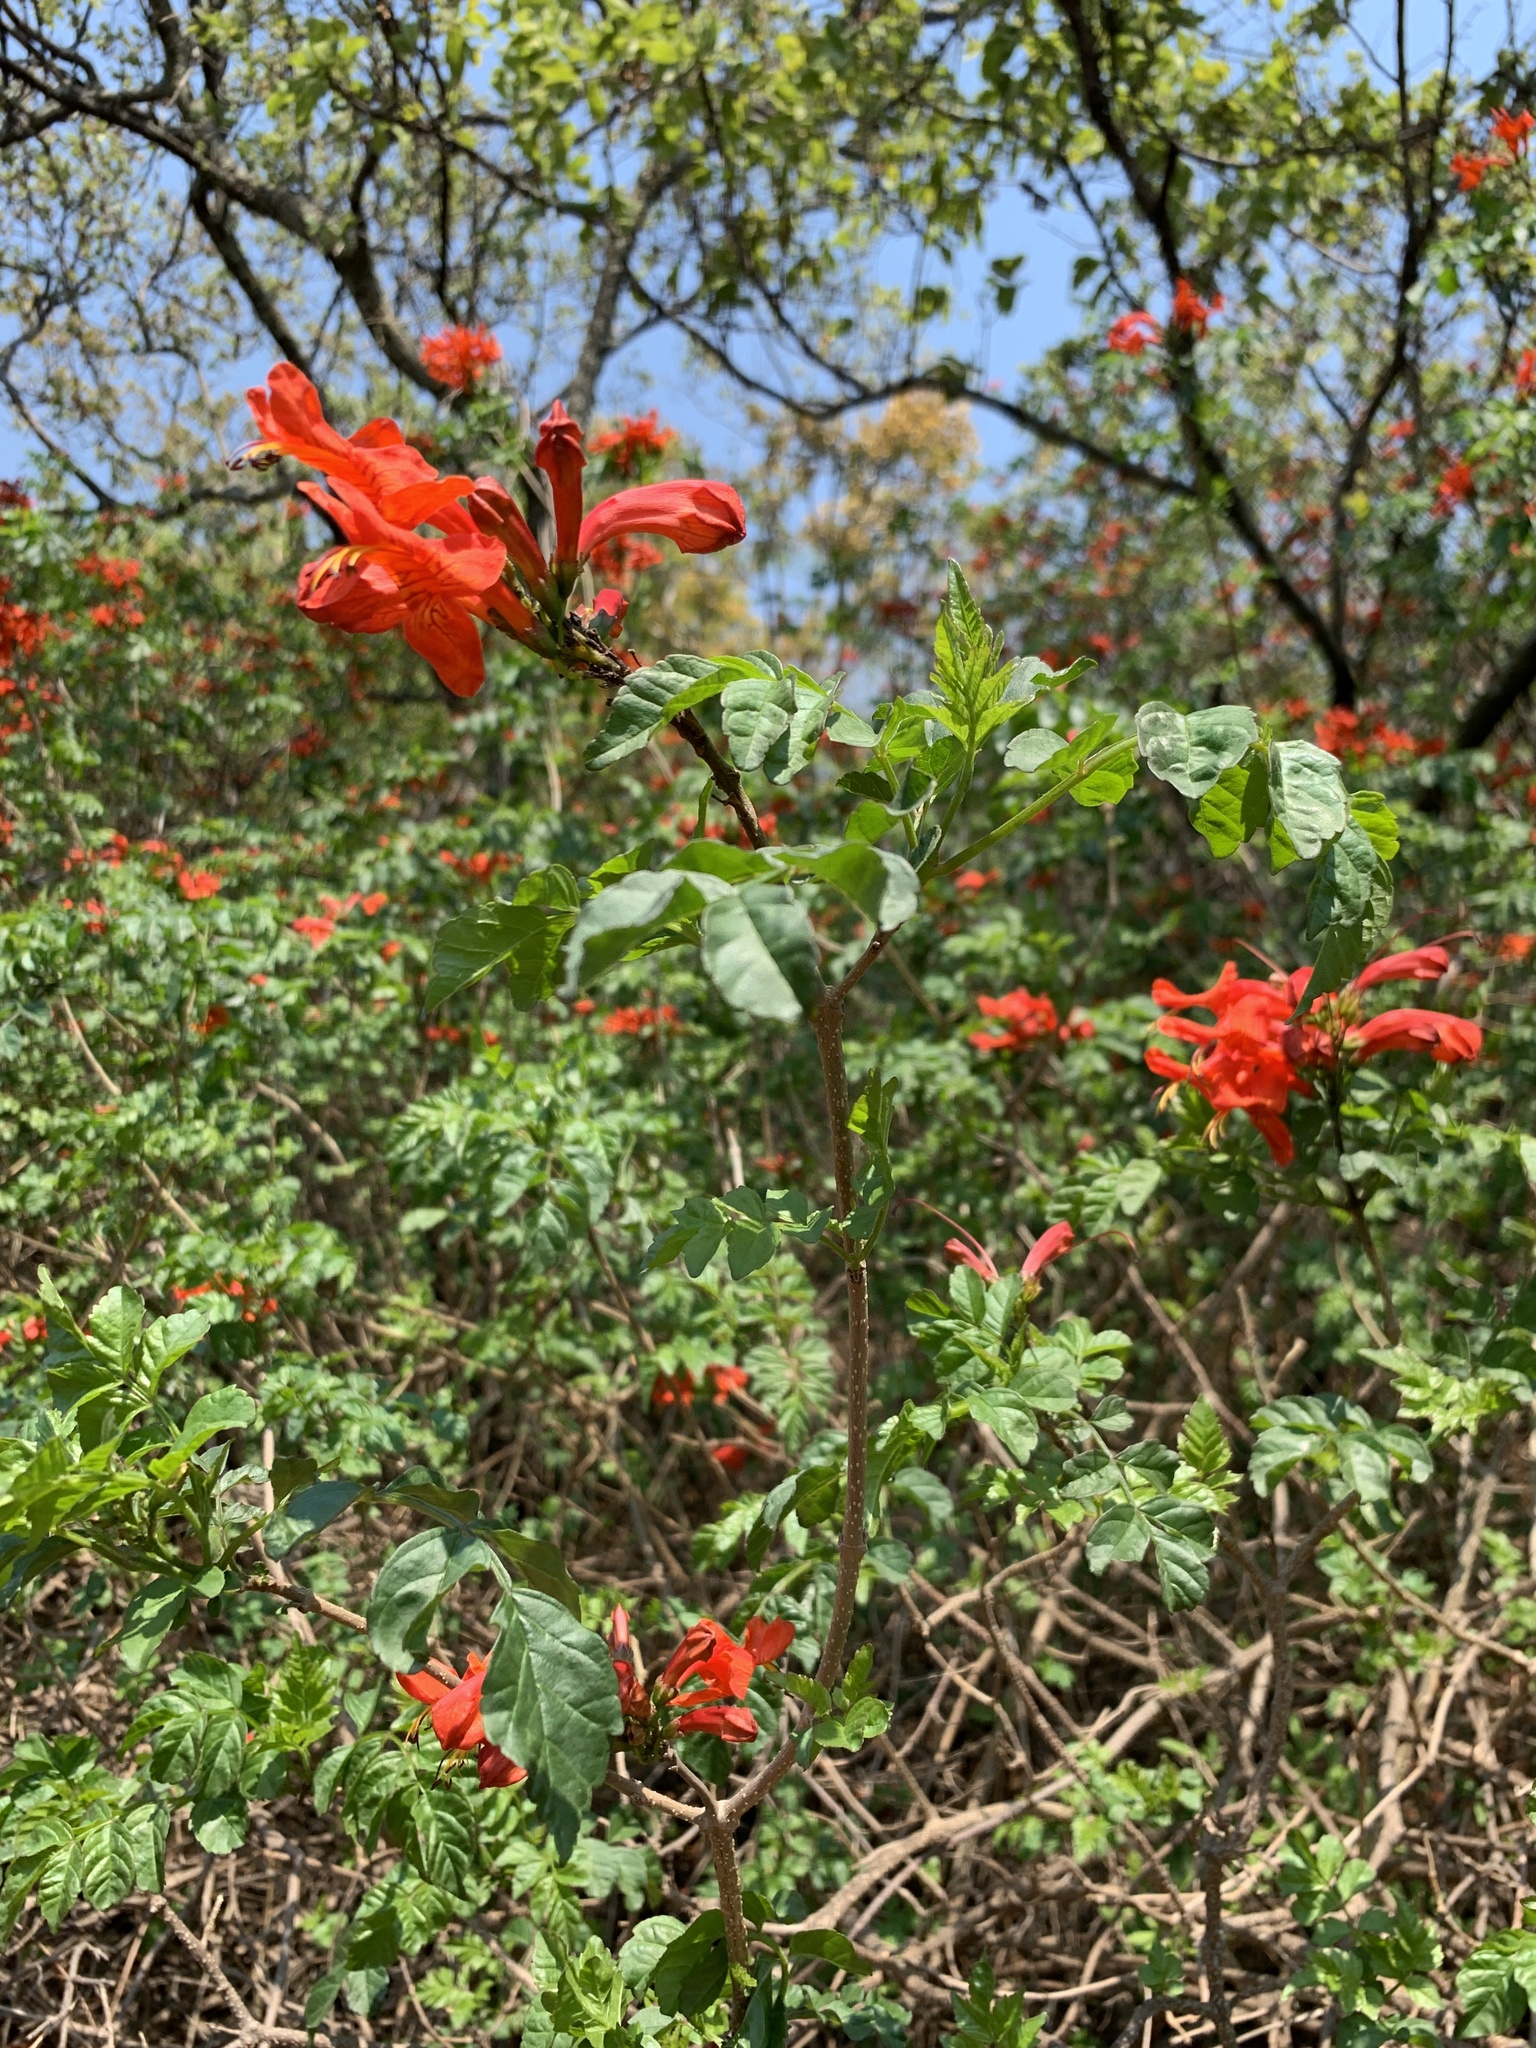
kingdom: Plantae
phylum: Tracheophyta
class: Magnoliopsida
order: Lamiales
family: Bignoniaceae
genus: Tecomaria
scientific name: Tecomaria capensis
